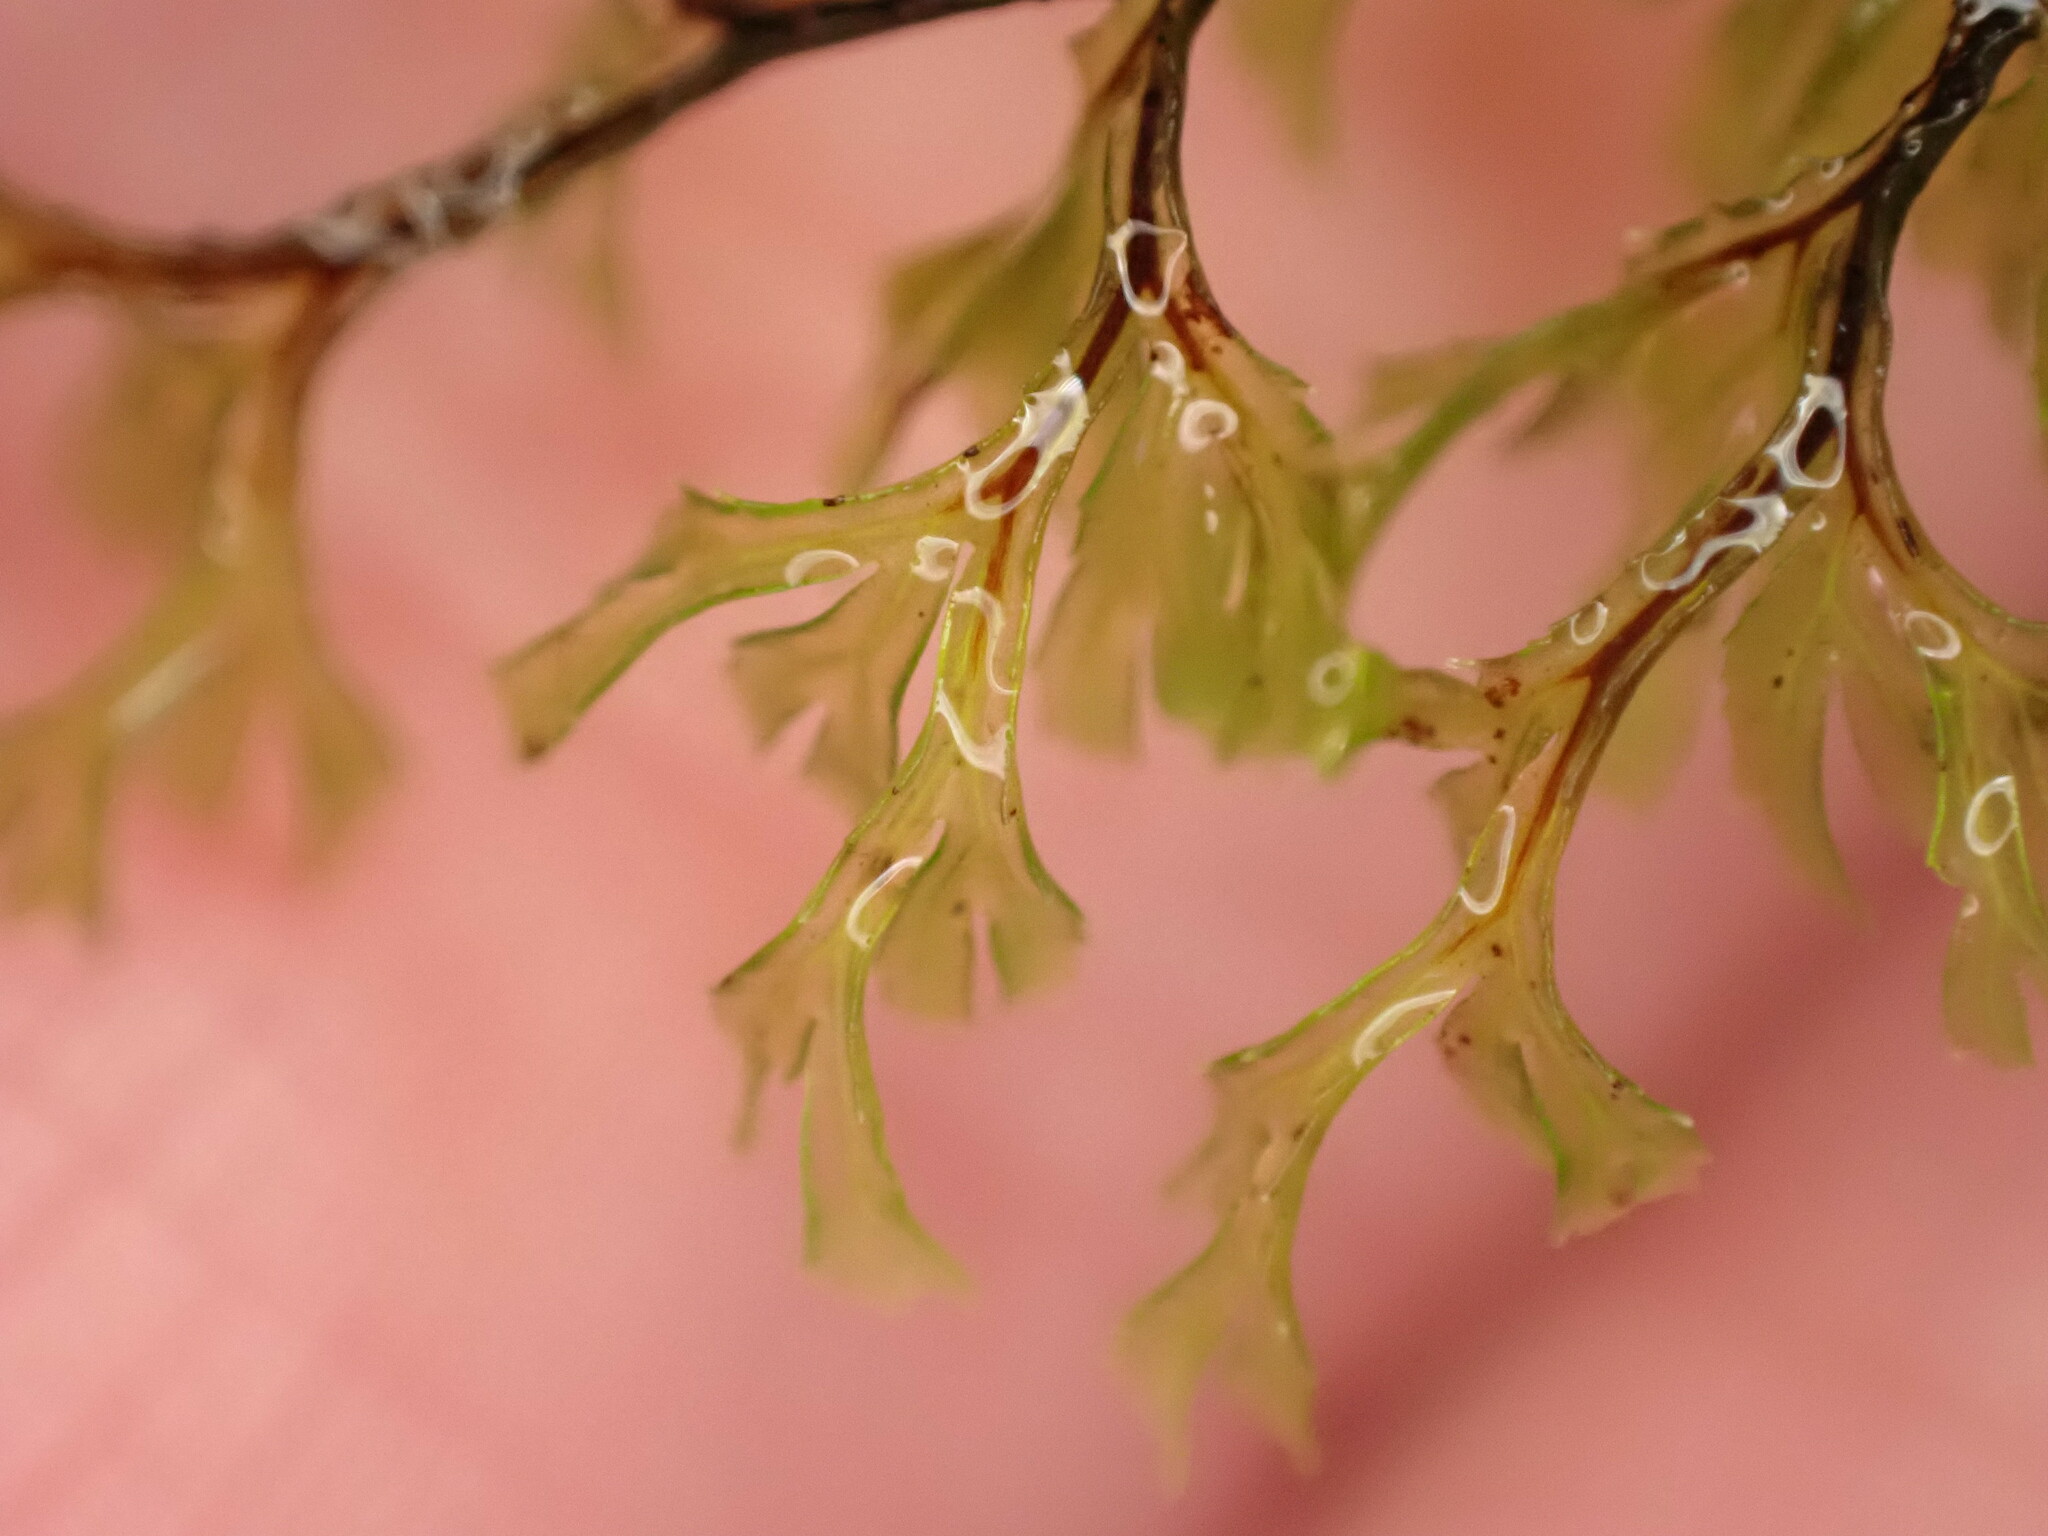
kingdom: Plantae
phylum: Tracheophyta
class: Polypodiopsida
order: Hymenophyllales
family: Hymenophyllaceae
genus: Hymenophyllum
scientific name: Hymenophyllum multifidum
